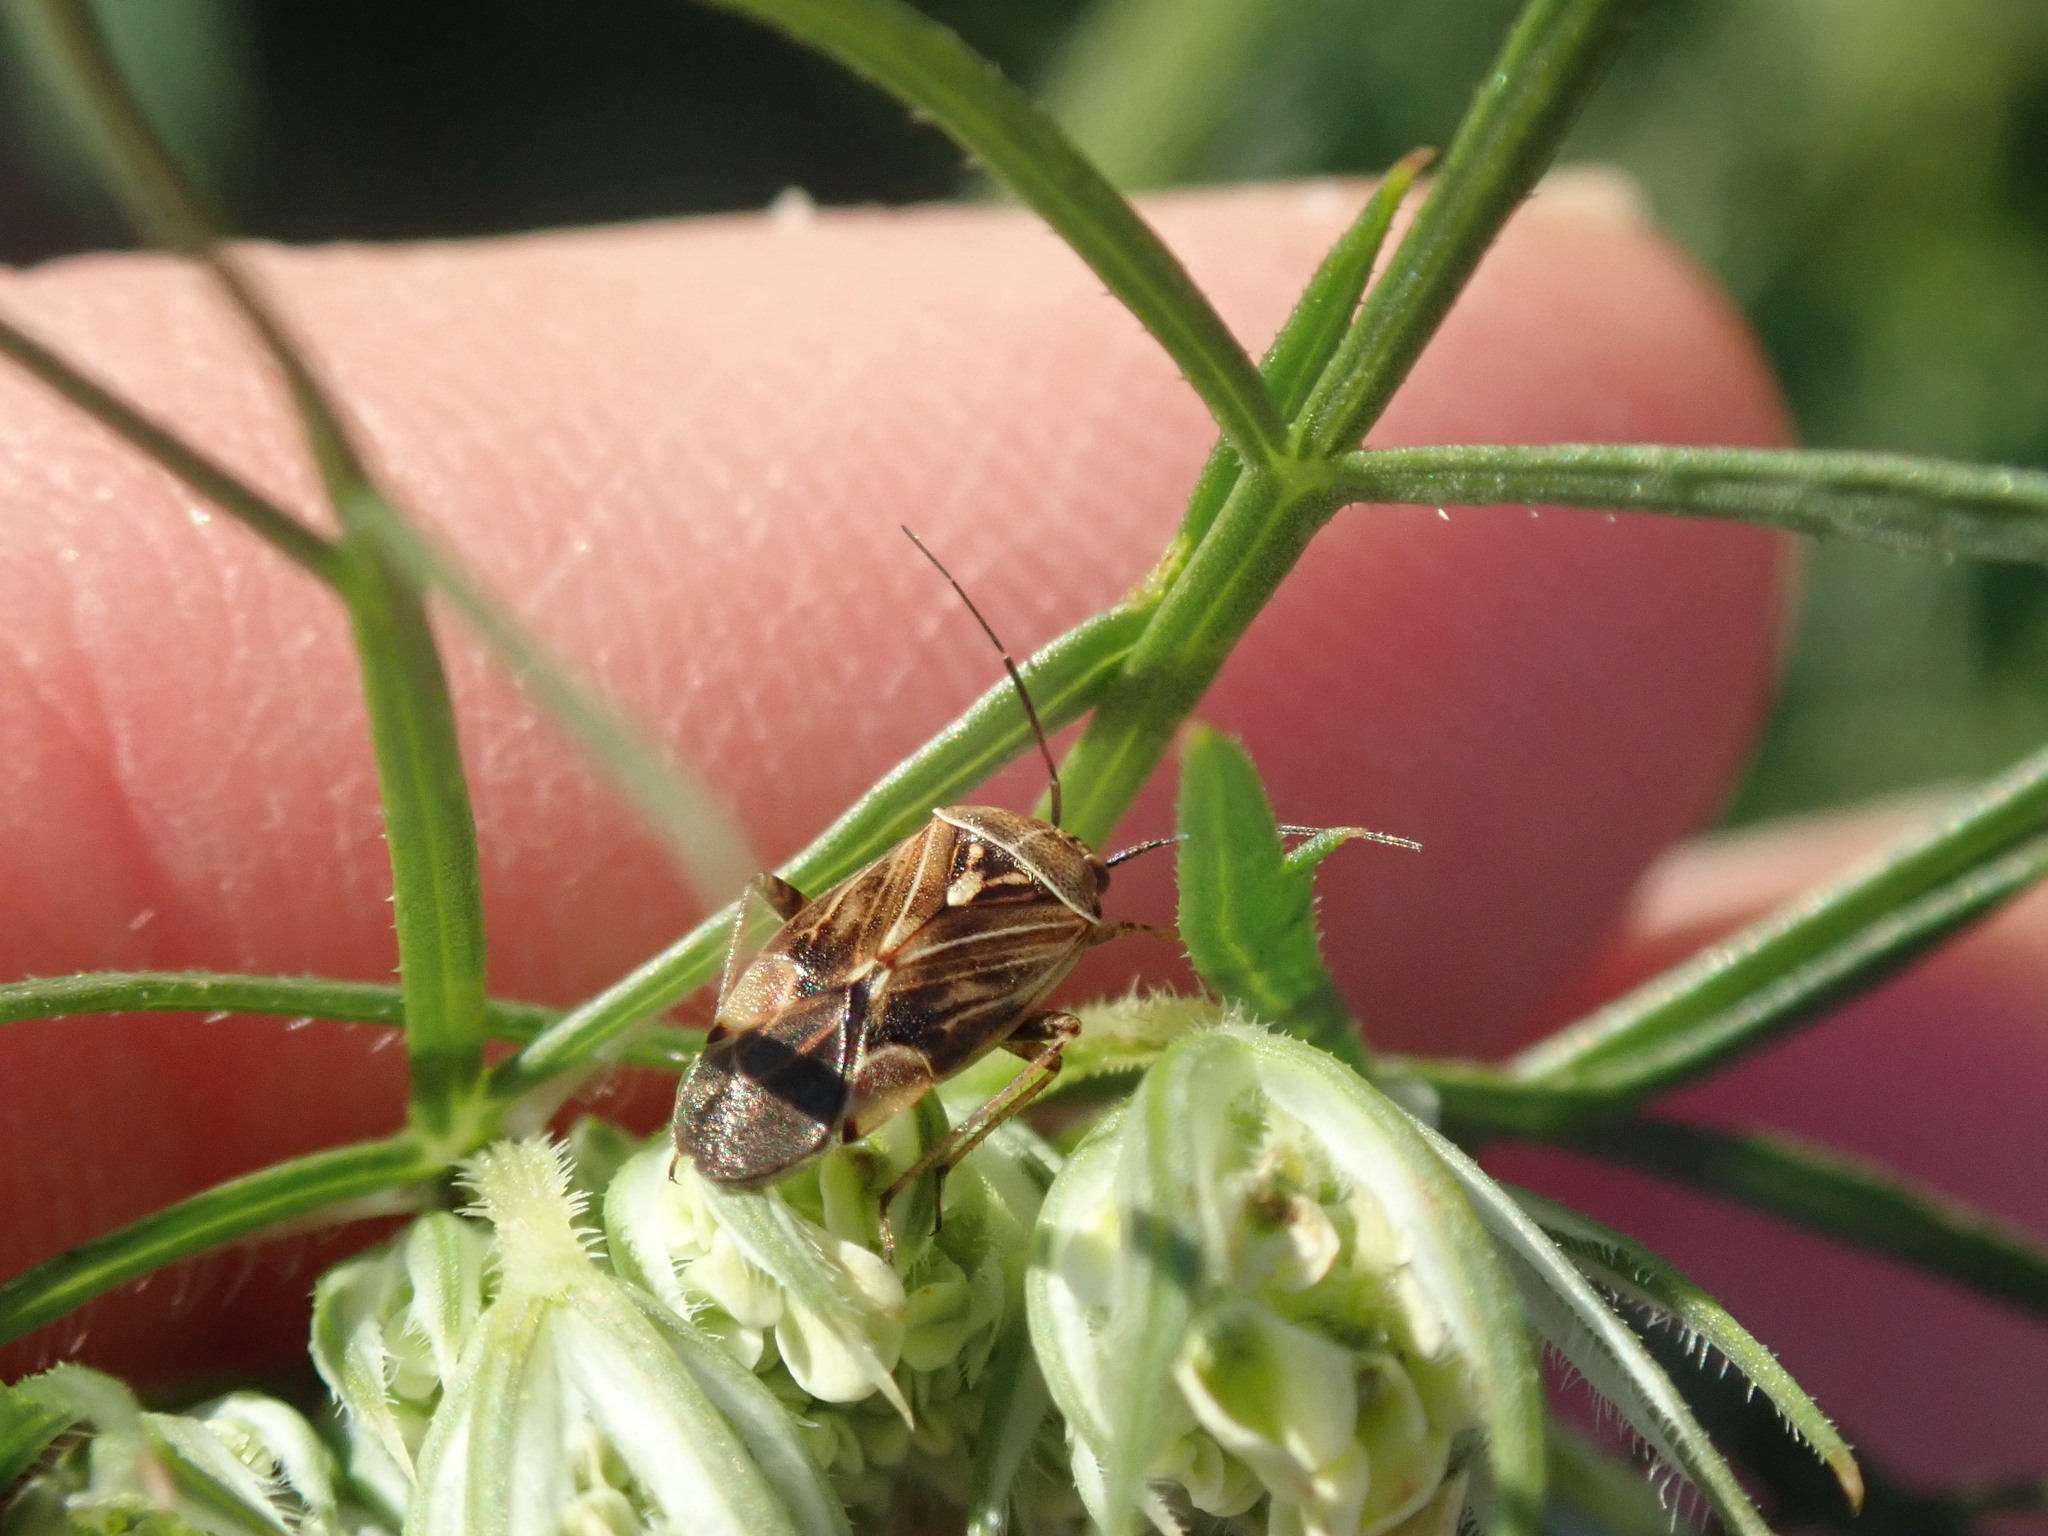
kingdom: Animalia
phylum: Arthropoda
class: Insecta
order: Hemiptera
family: Miridae
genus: Lygus
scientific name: Lygus lineolaris
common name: North american tarnished plant bug
